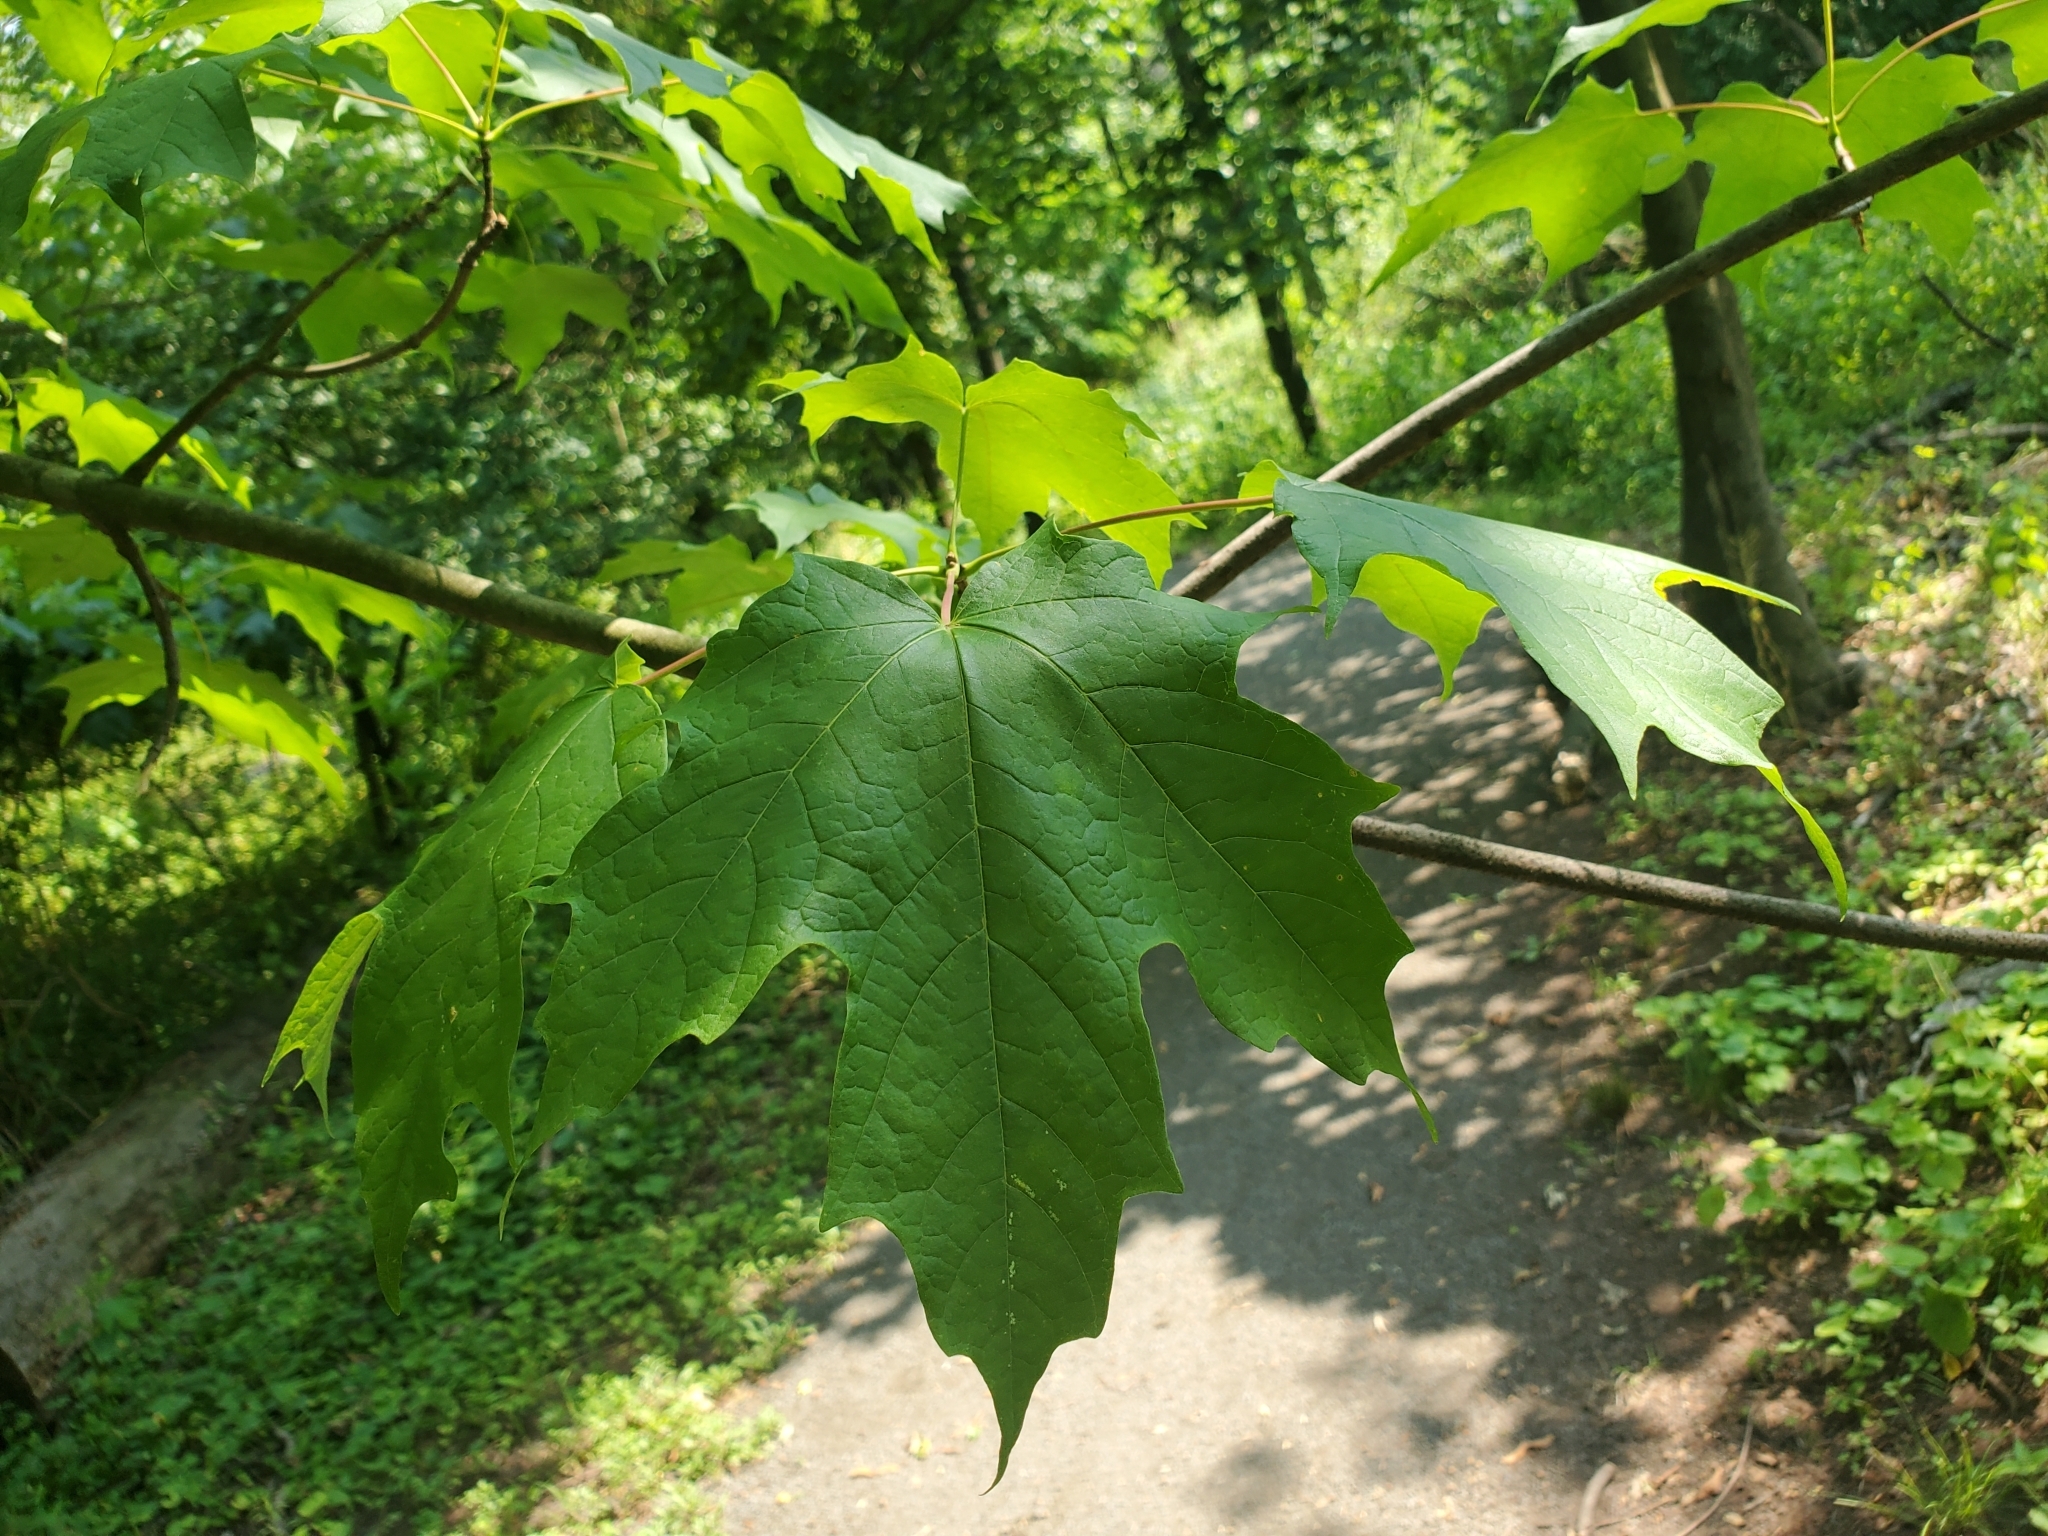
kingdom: Plantae
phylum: Tracheophyta
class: Magnoliopsida
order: Sapindales
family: Sapindaceae
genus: Acer
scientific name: Acer saccharum
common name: Sugar maple
